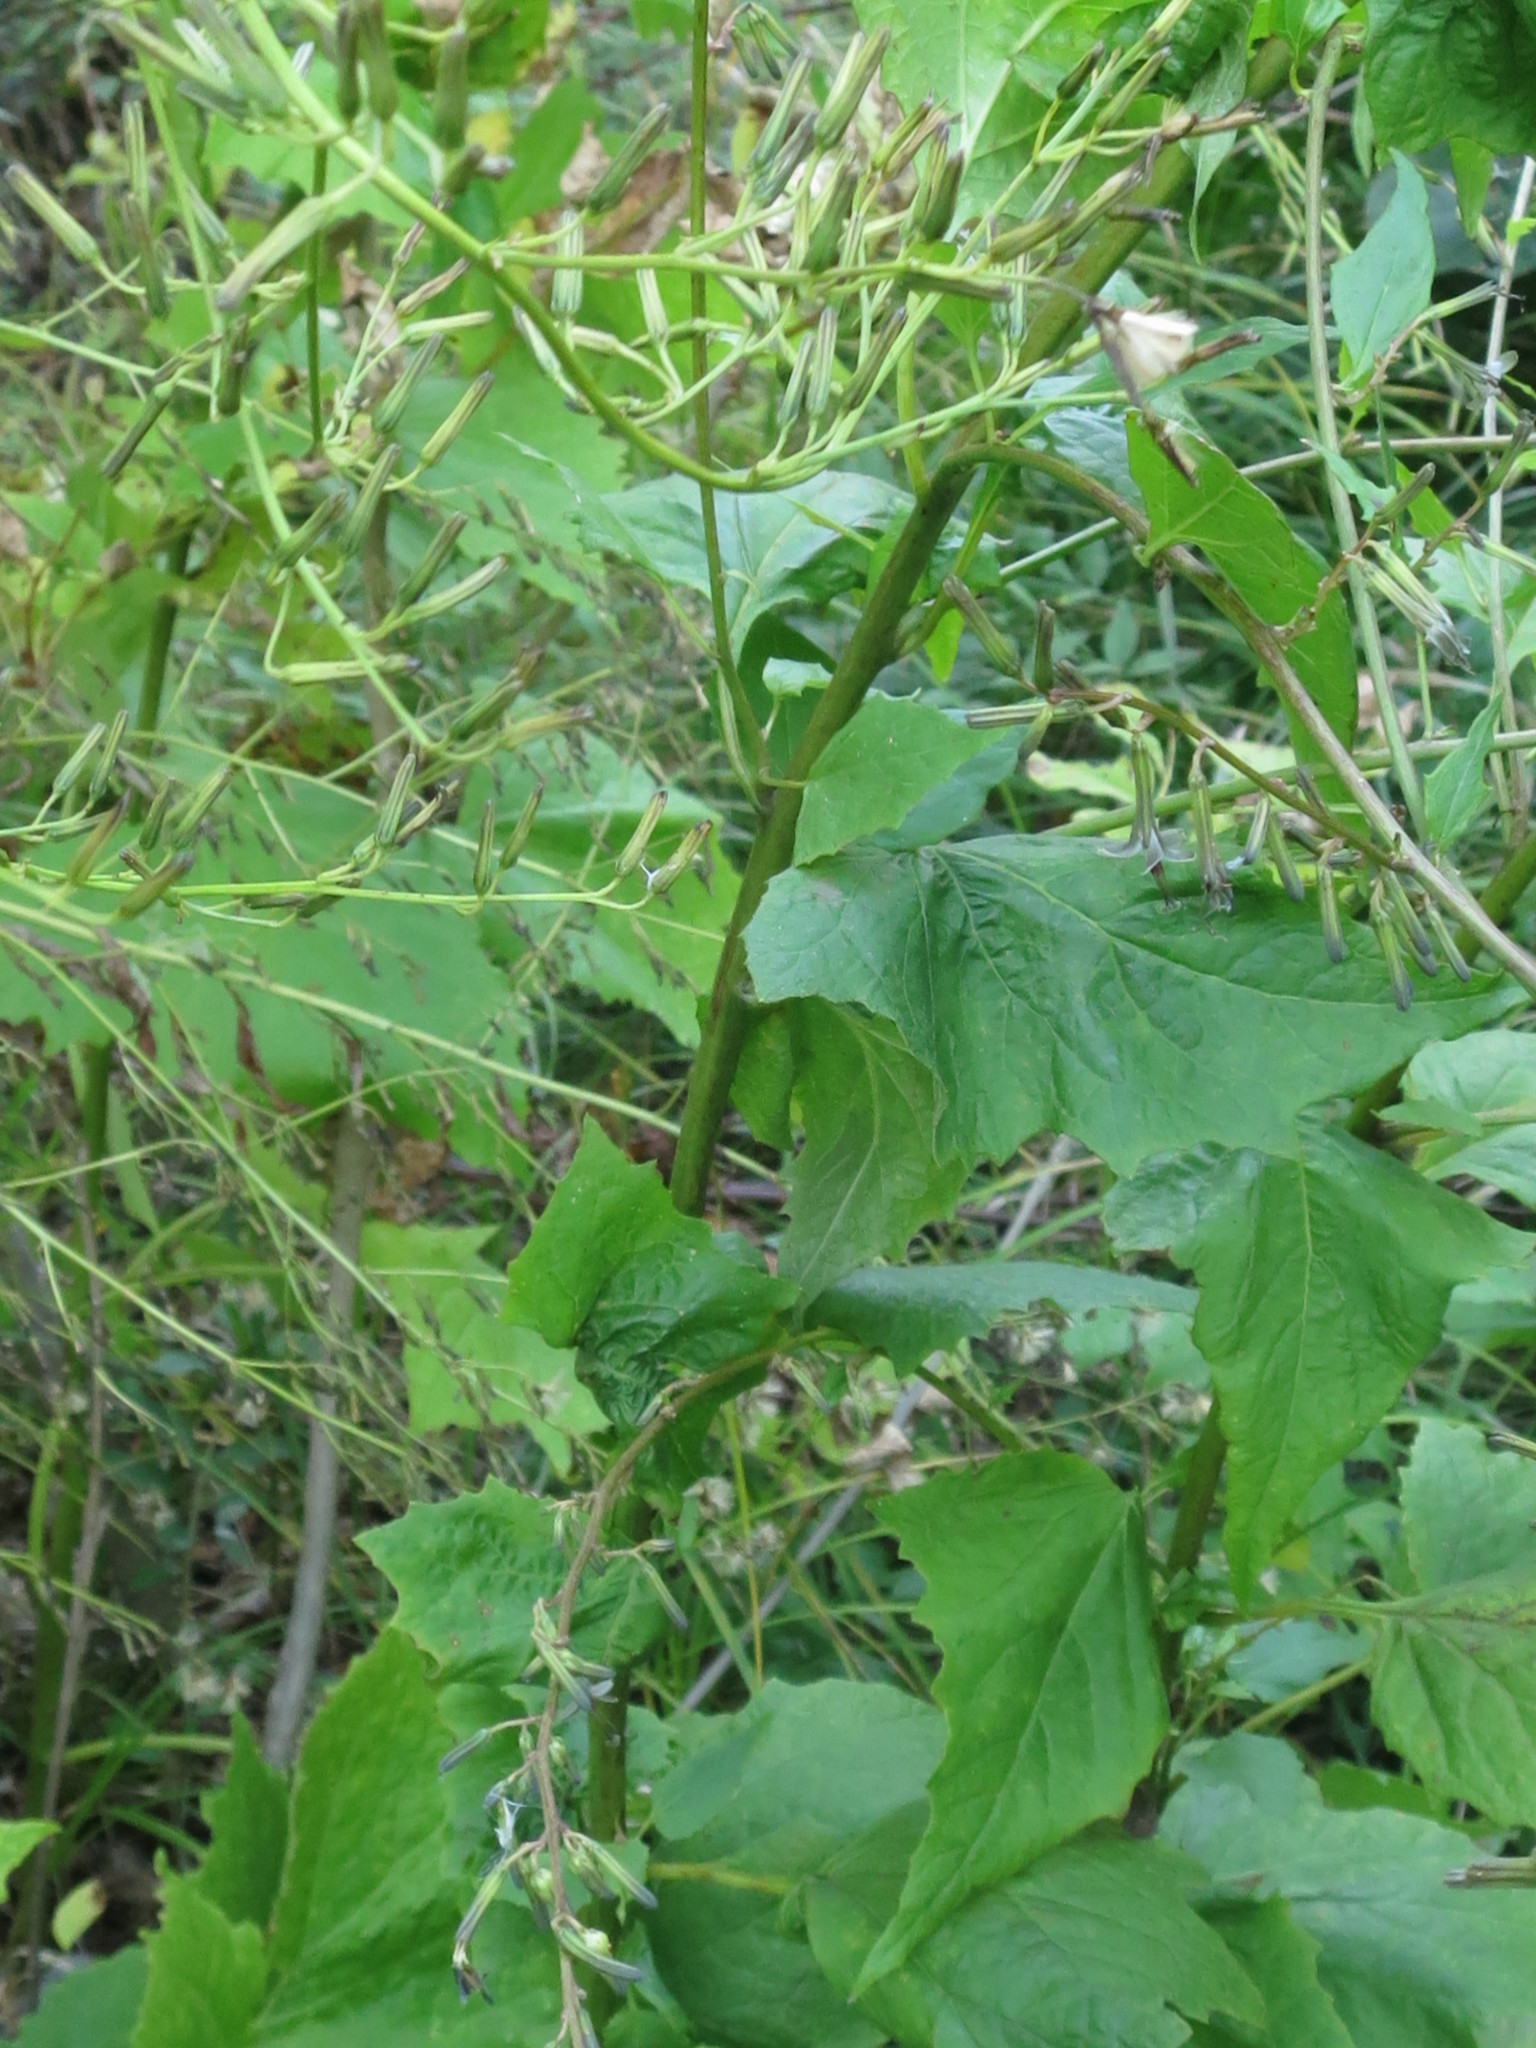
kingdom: Plantae
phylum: Tracheophyta
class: Magnoliopsida
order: Asterales
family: Asteraceae
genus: Nabalus
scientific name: Nabalus tatarinowii
